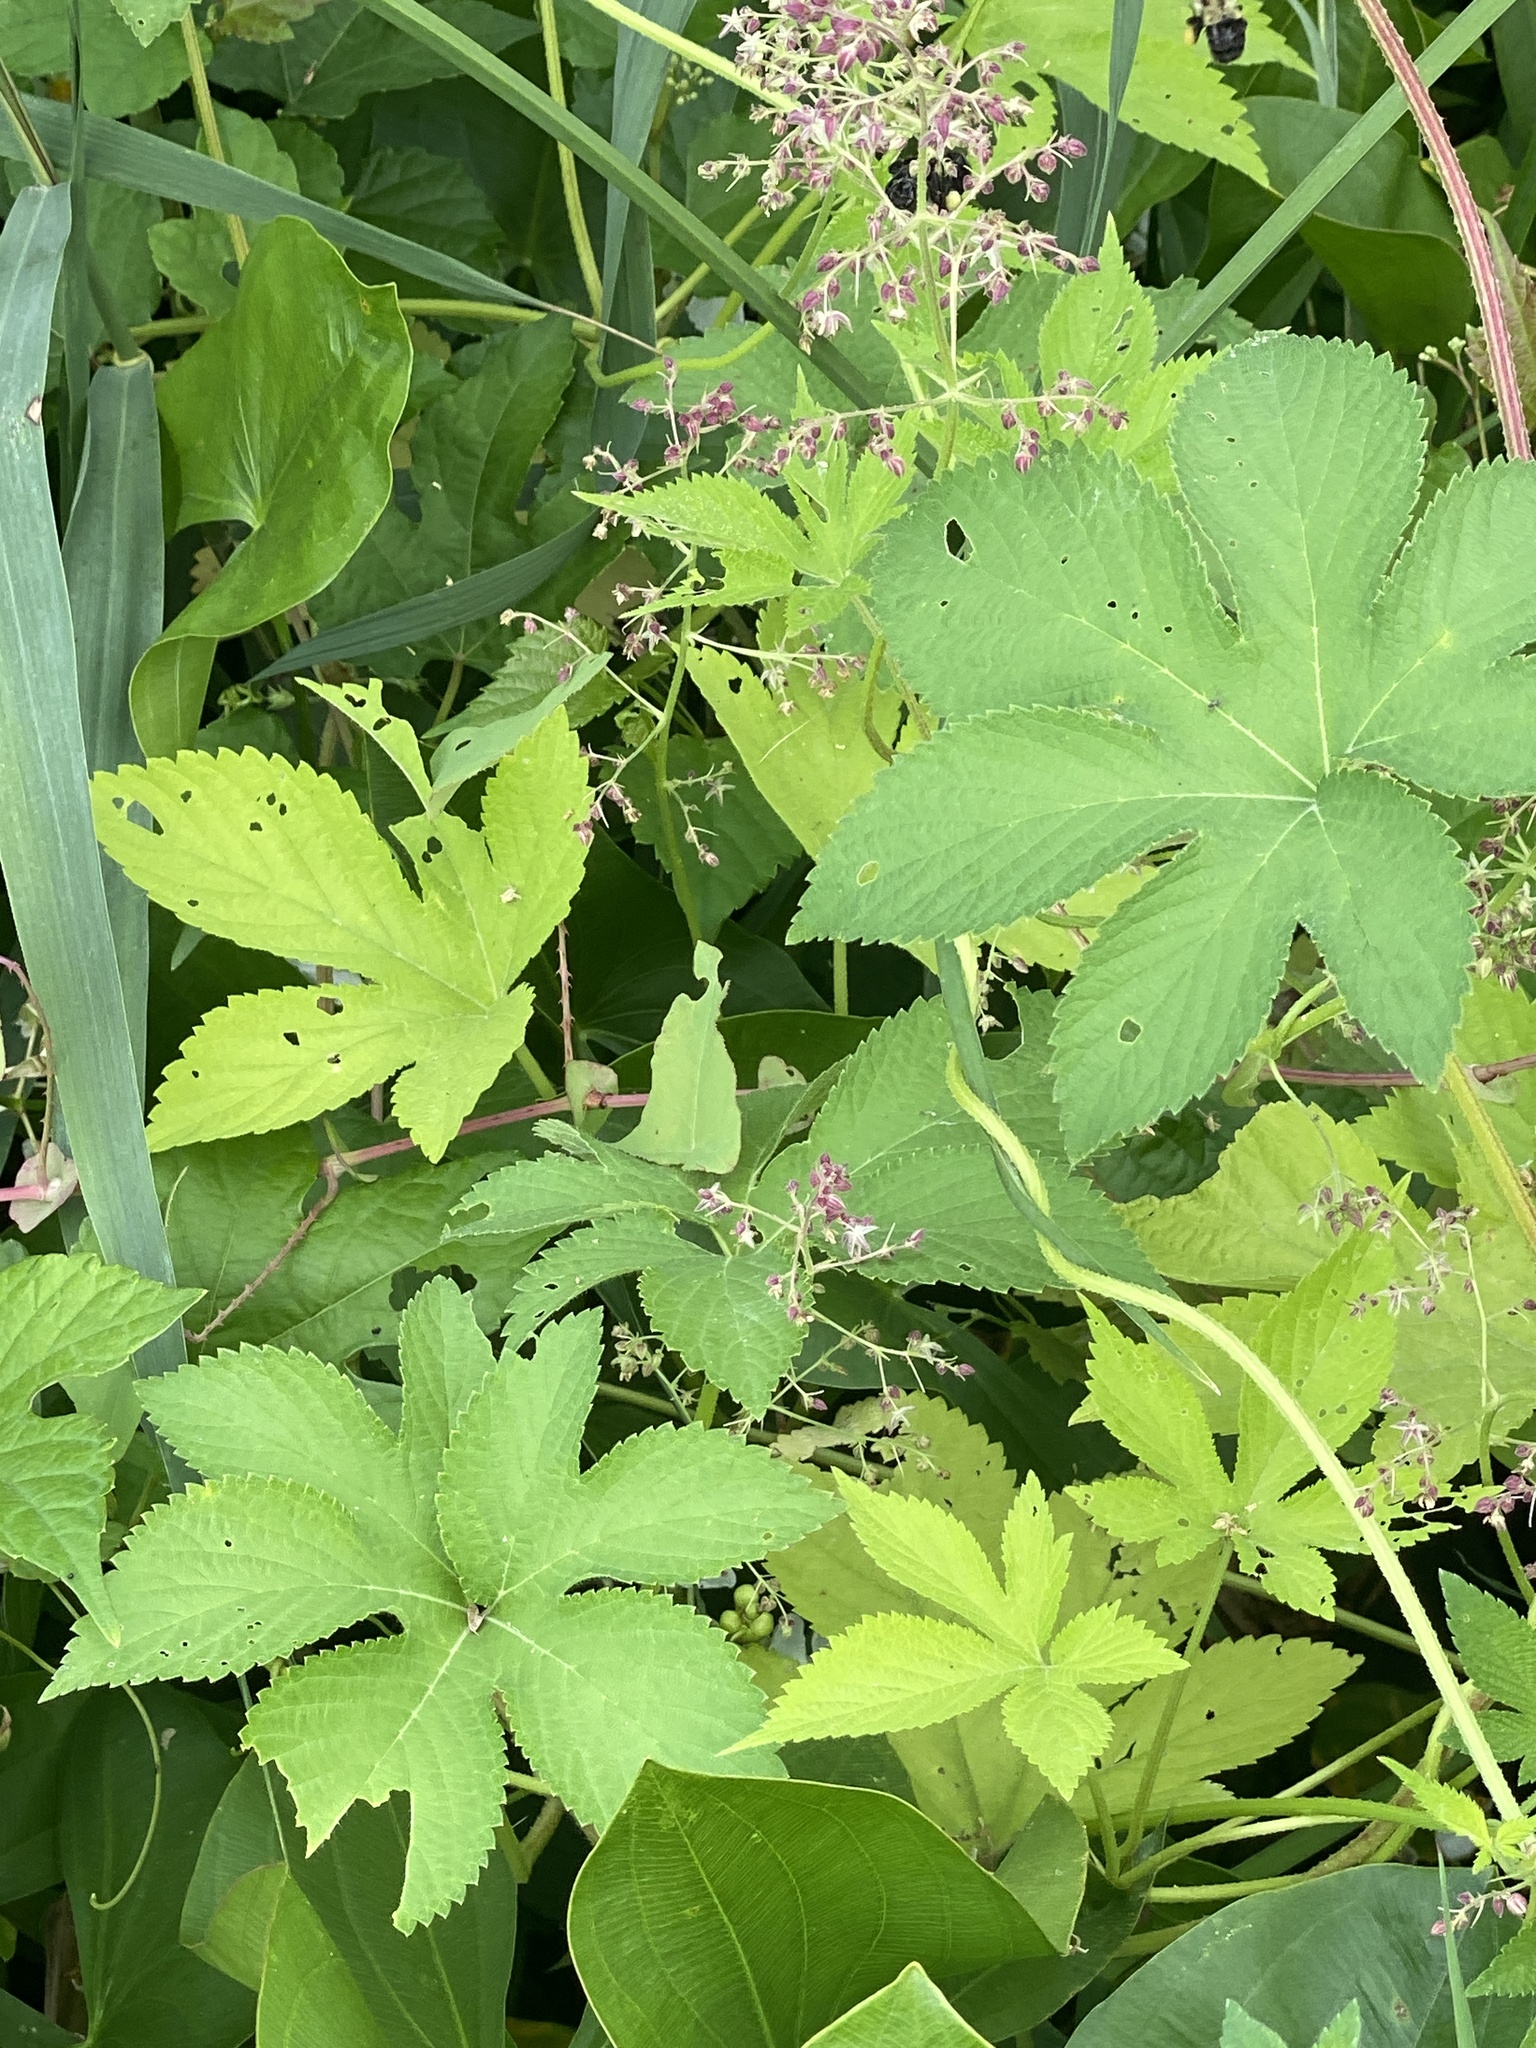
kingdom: Plantae
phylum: Tracheophyta
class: Magnoliopsida
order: Rosales
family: Cannabaceae
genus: Humulus
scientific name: Humulus scandens
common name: Japanese hop
